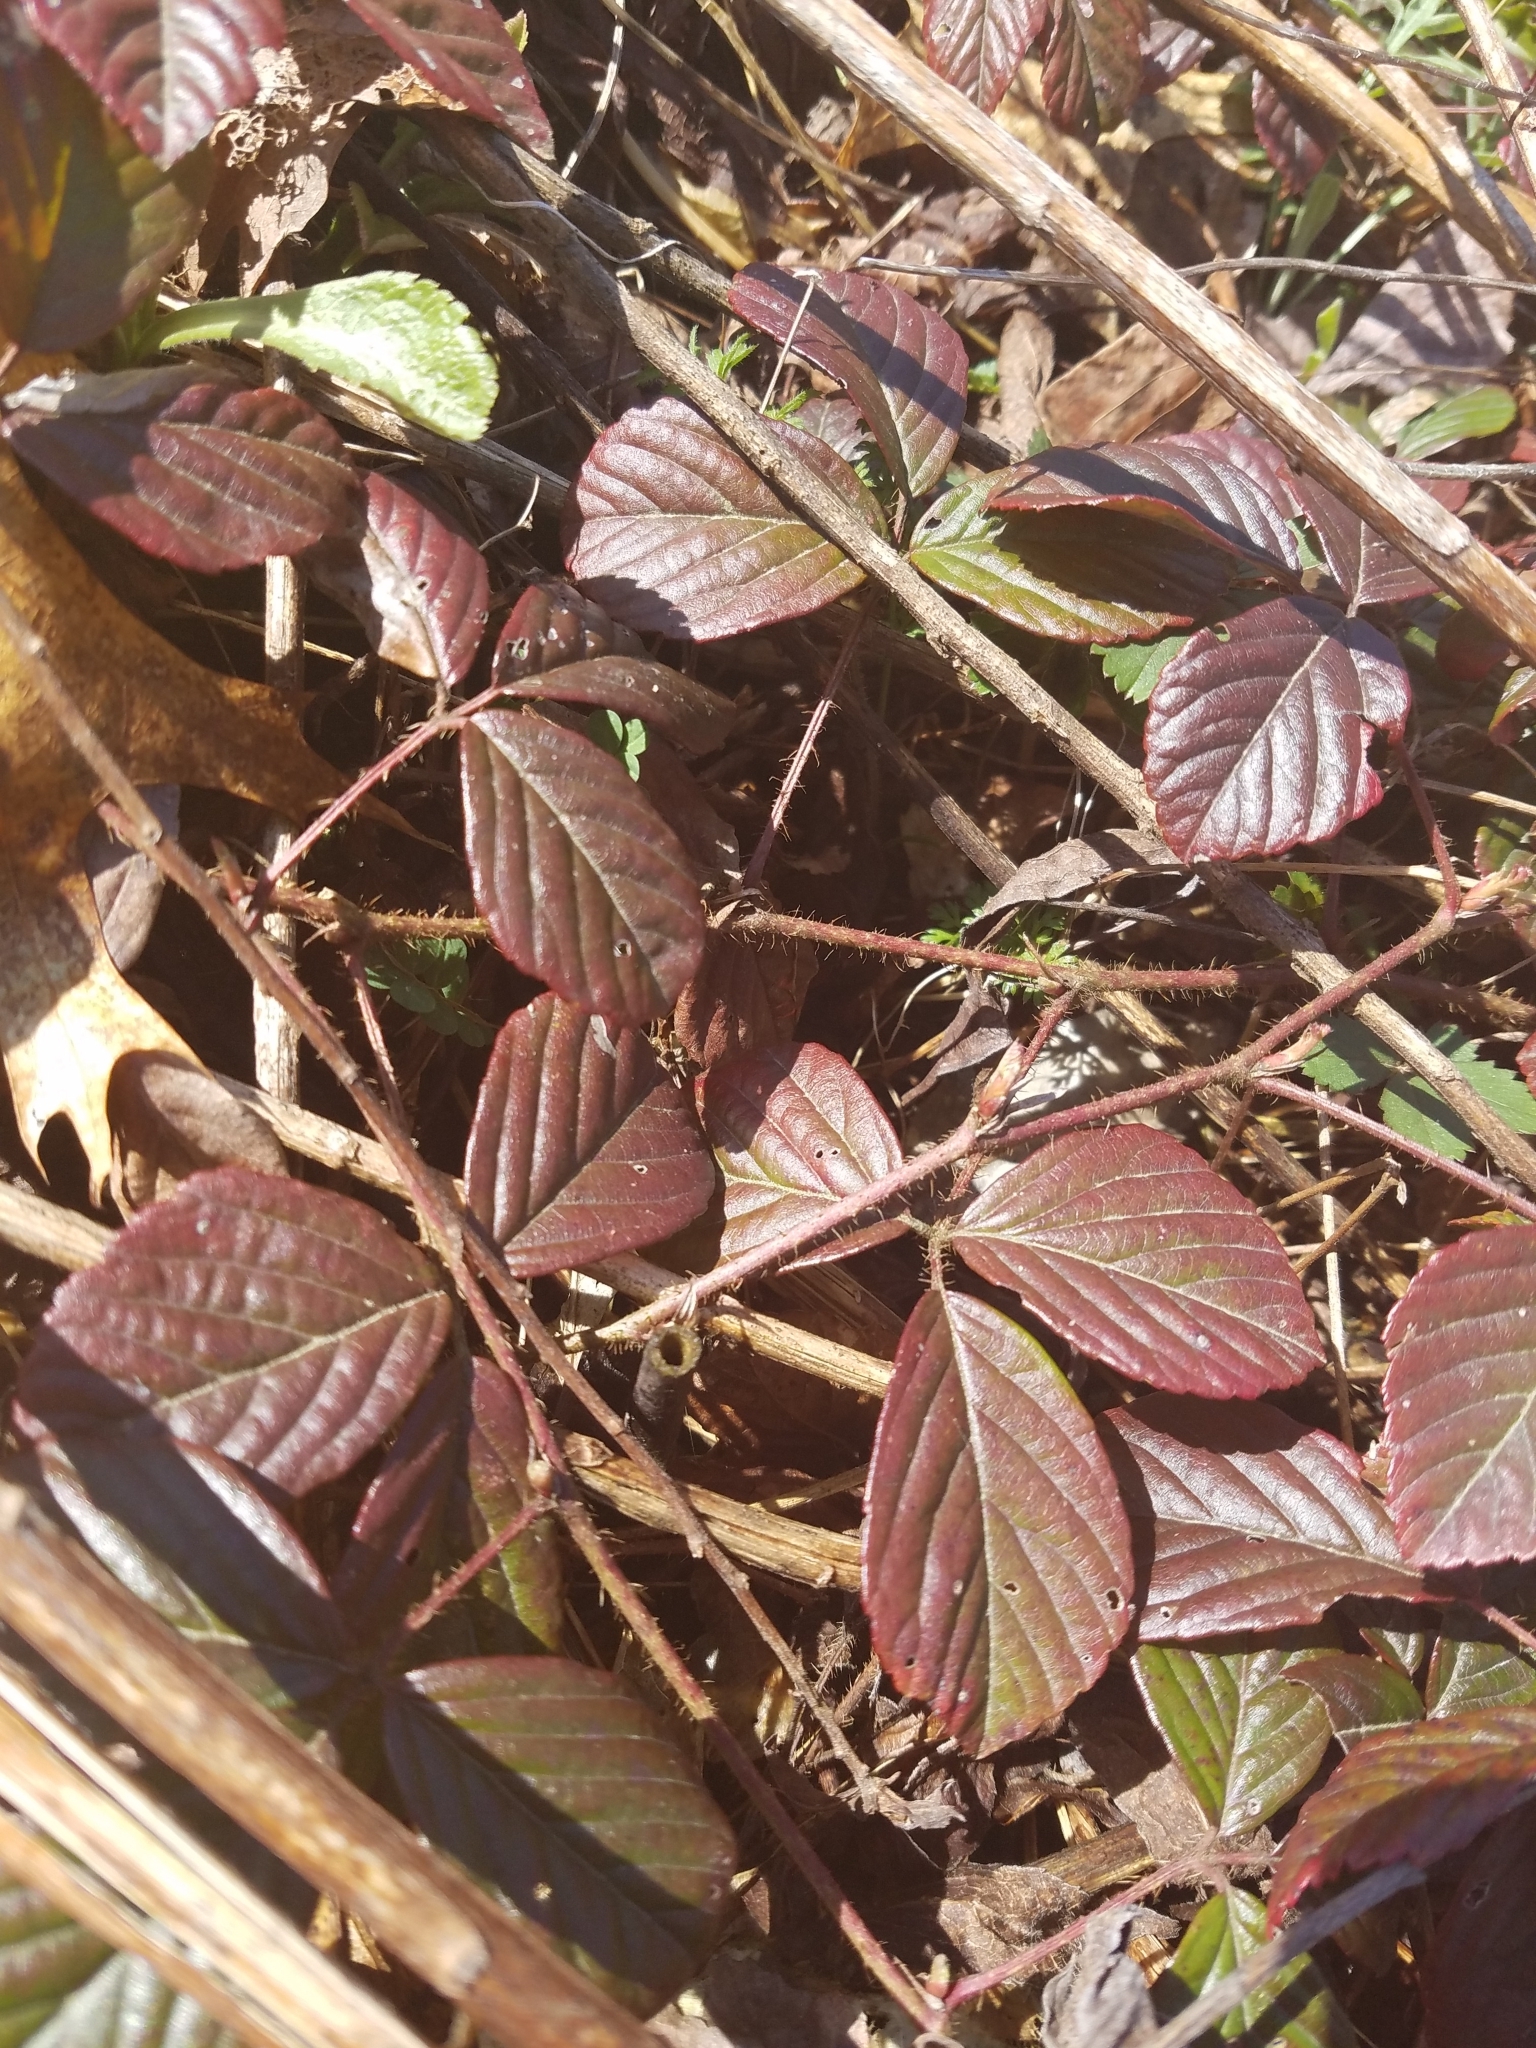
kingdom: Plantae
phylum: Tracheophyta
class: Magnoliopsida
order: Rosales
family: Rosaceae
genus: Rubus
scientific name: Rubus hispidus
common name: Running blackberry
